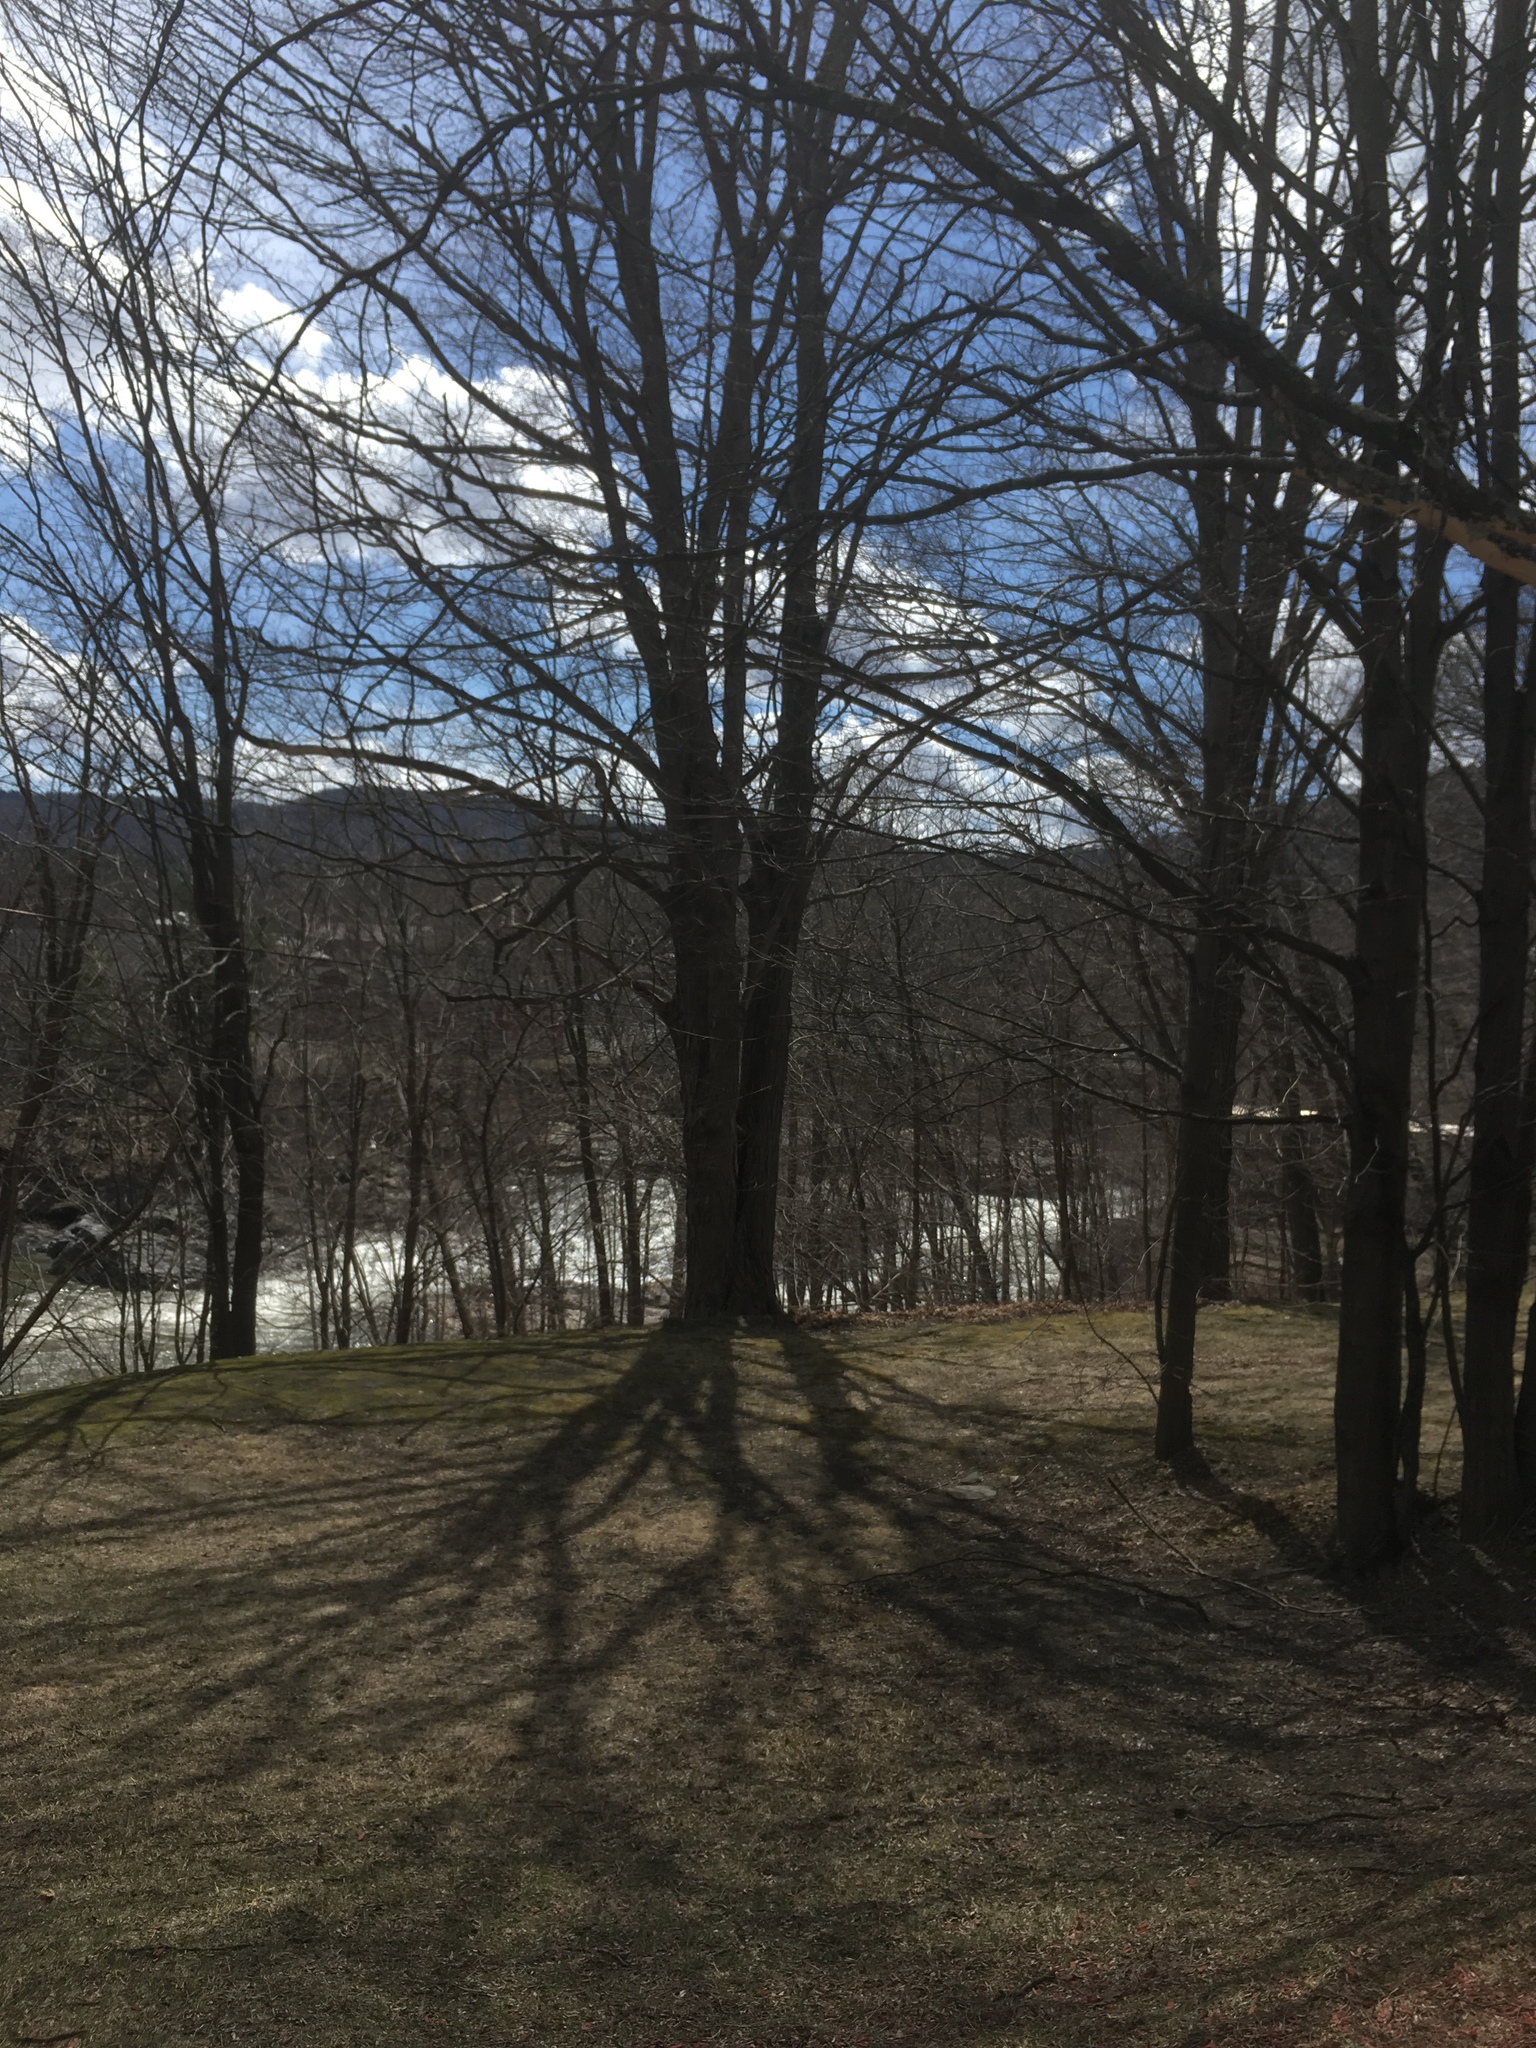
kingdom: Plantae
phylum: Tracheophyta
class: Magnoliopsida
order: Sapindales
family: Sapindaceae
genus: Acer
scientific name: Acer saccharum
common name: Sugar maple
